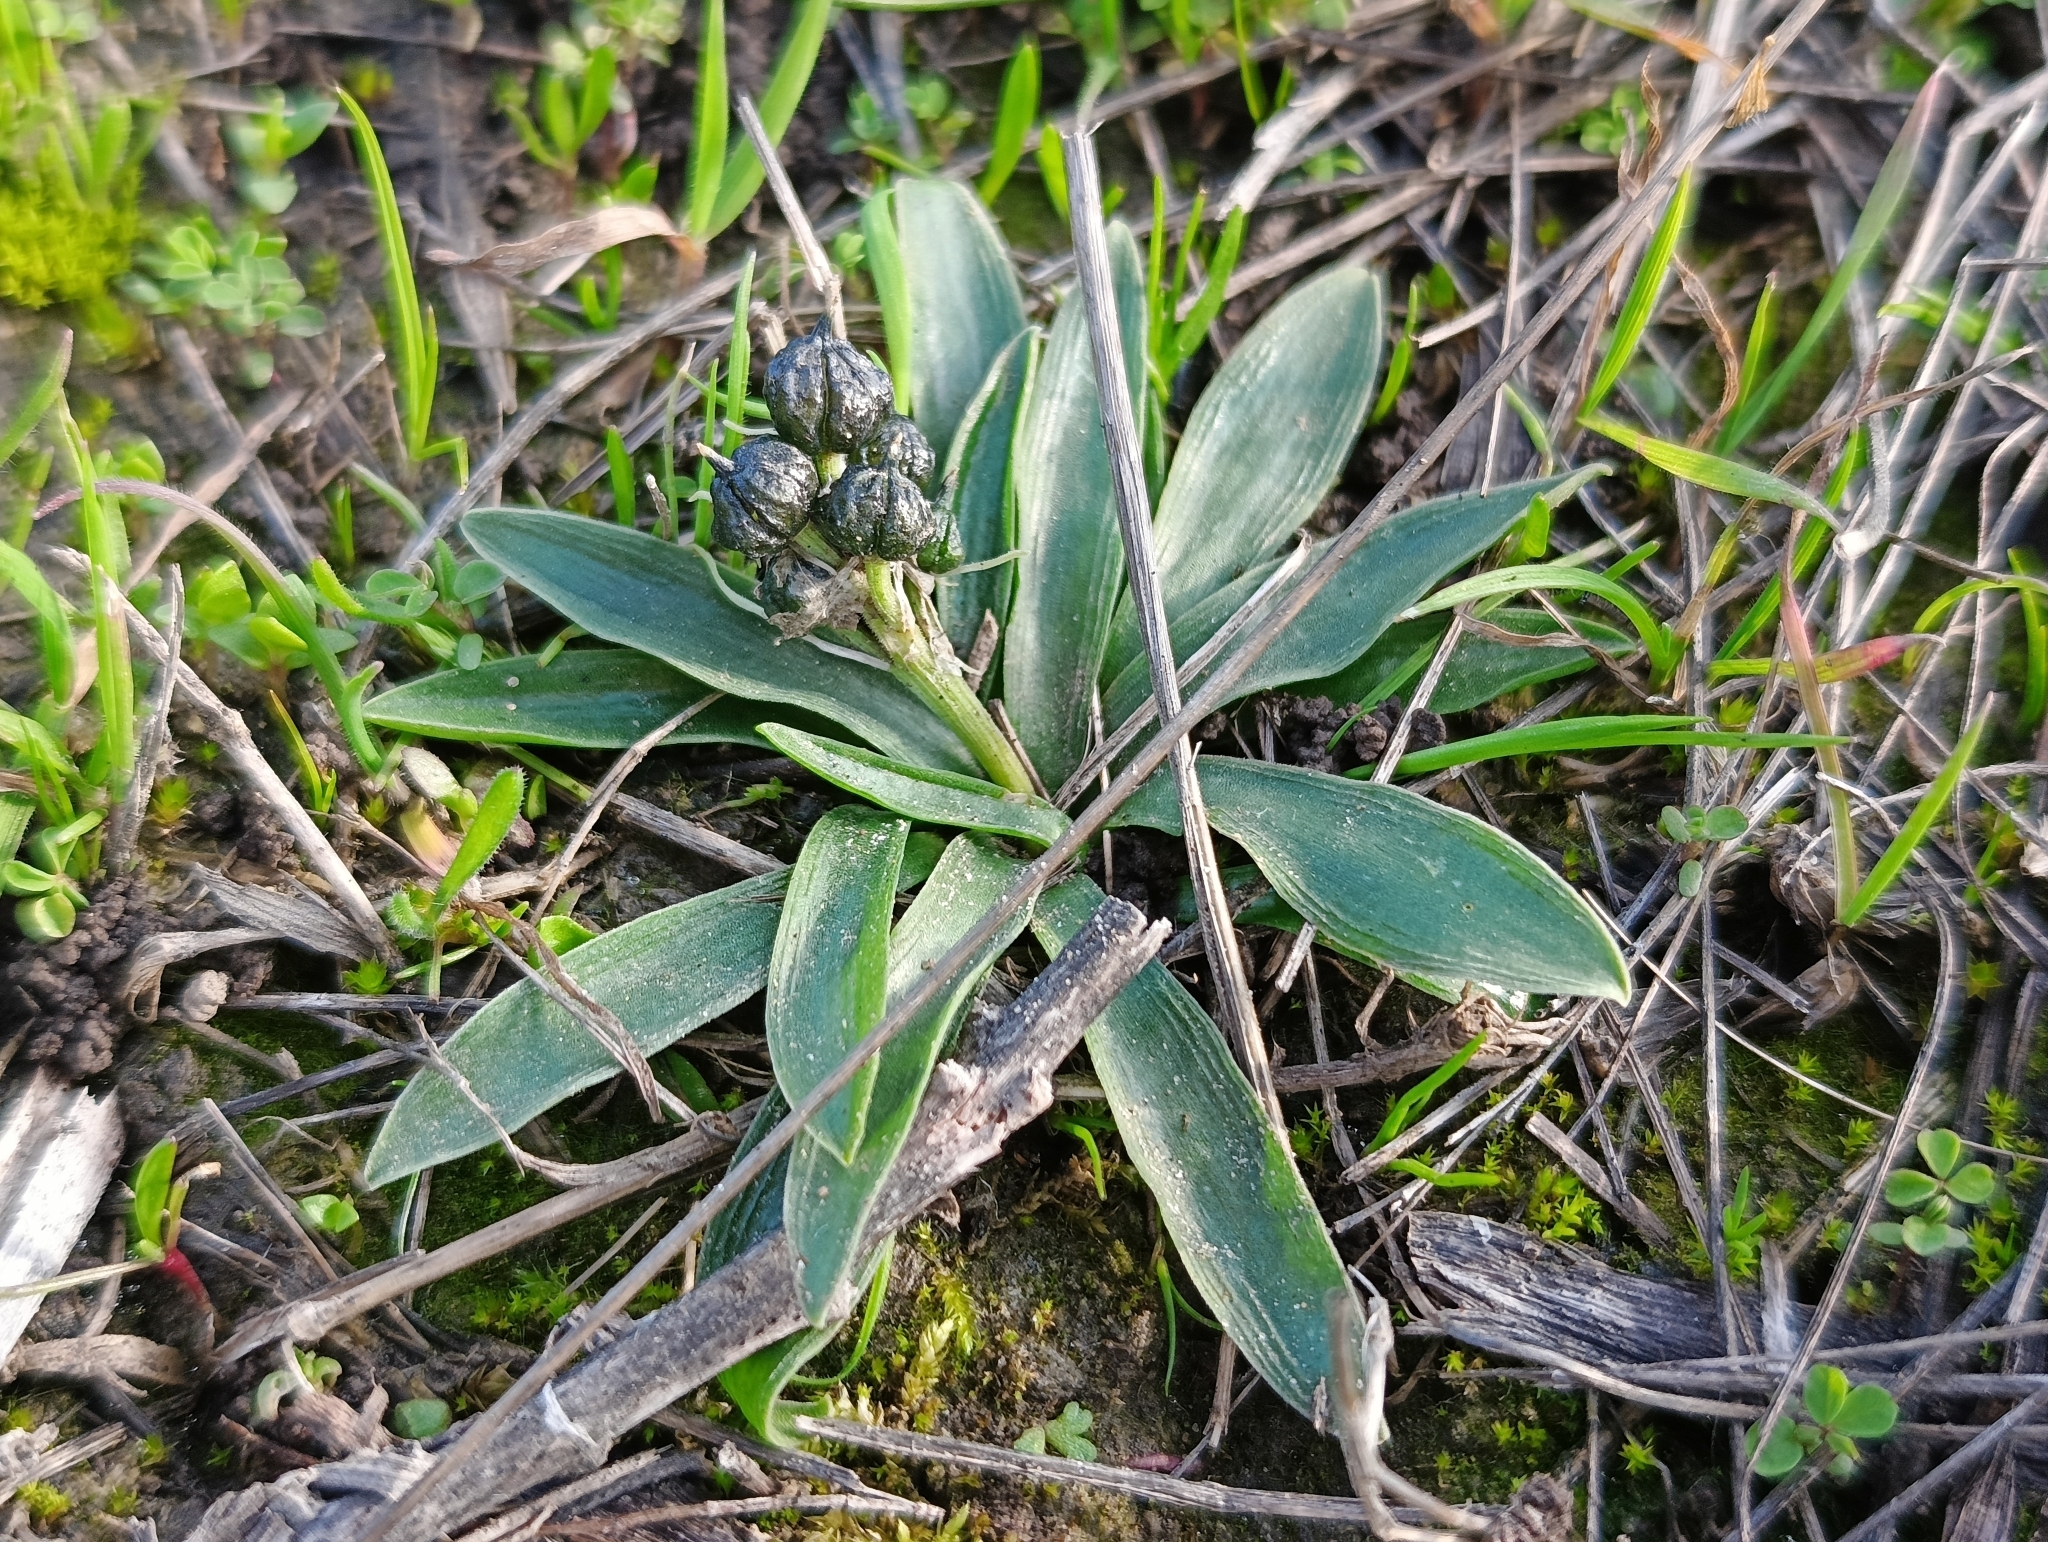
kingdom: Plantae
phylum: Tracheophyta
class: Liliopsida
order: Asparagales
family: Asparagaceae
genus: Hyacinthoides
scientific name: Hyacinthoides lingulata
